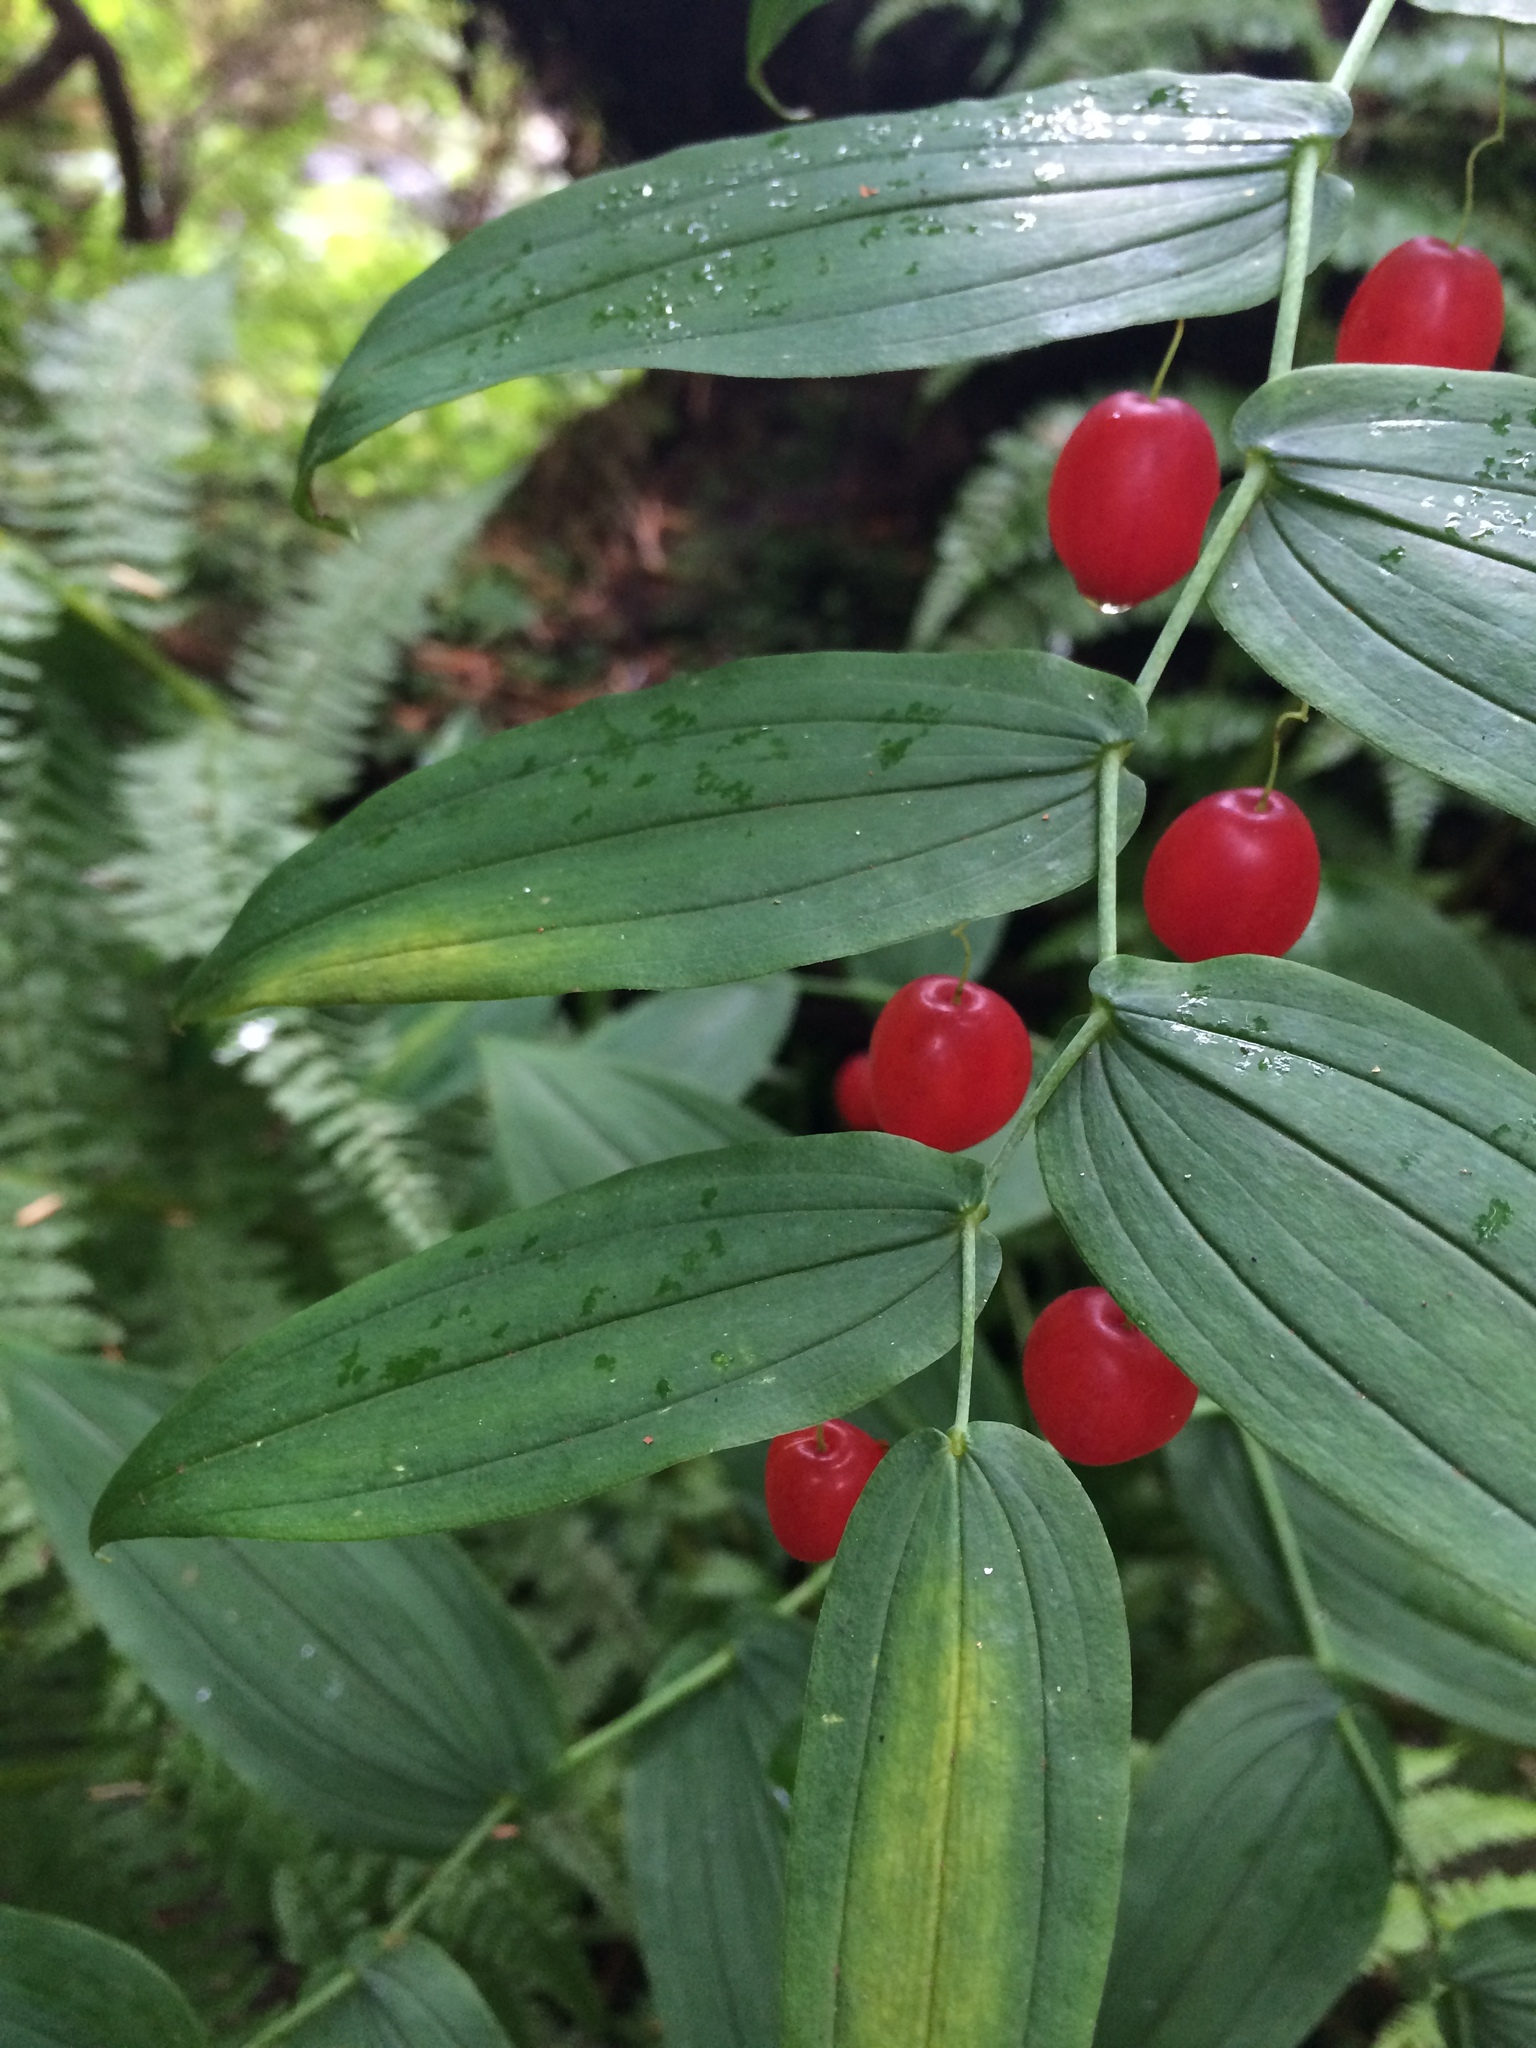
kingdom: Plantae
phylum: Tracheophyta
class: Liliopsida
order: Liliales
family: Liliaceae
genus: Streptopus
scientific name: Streptopus amplexifolius
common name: Clasp twisted stalk
